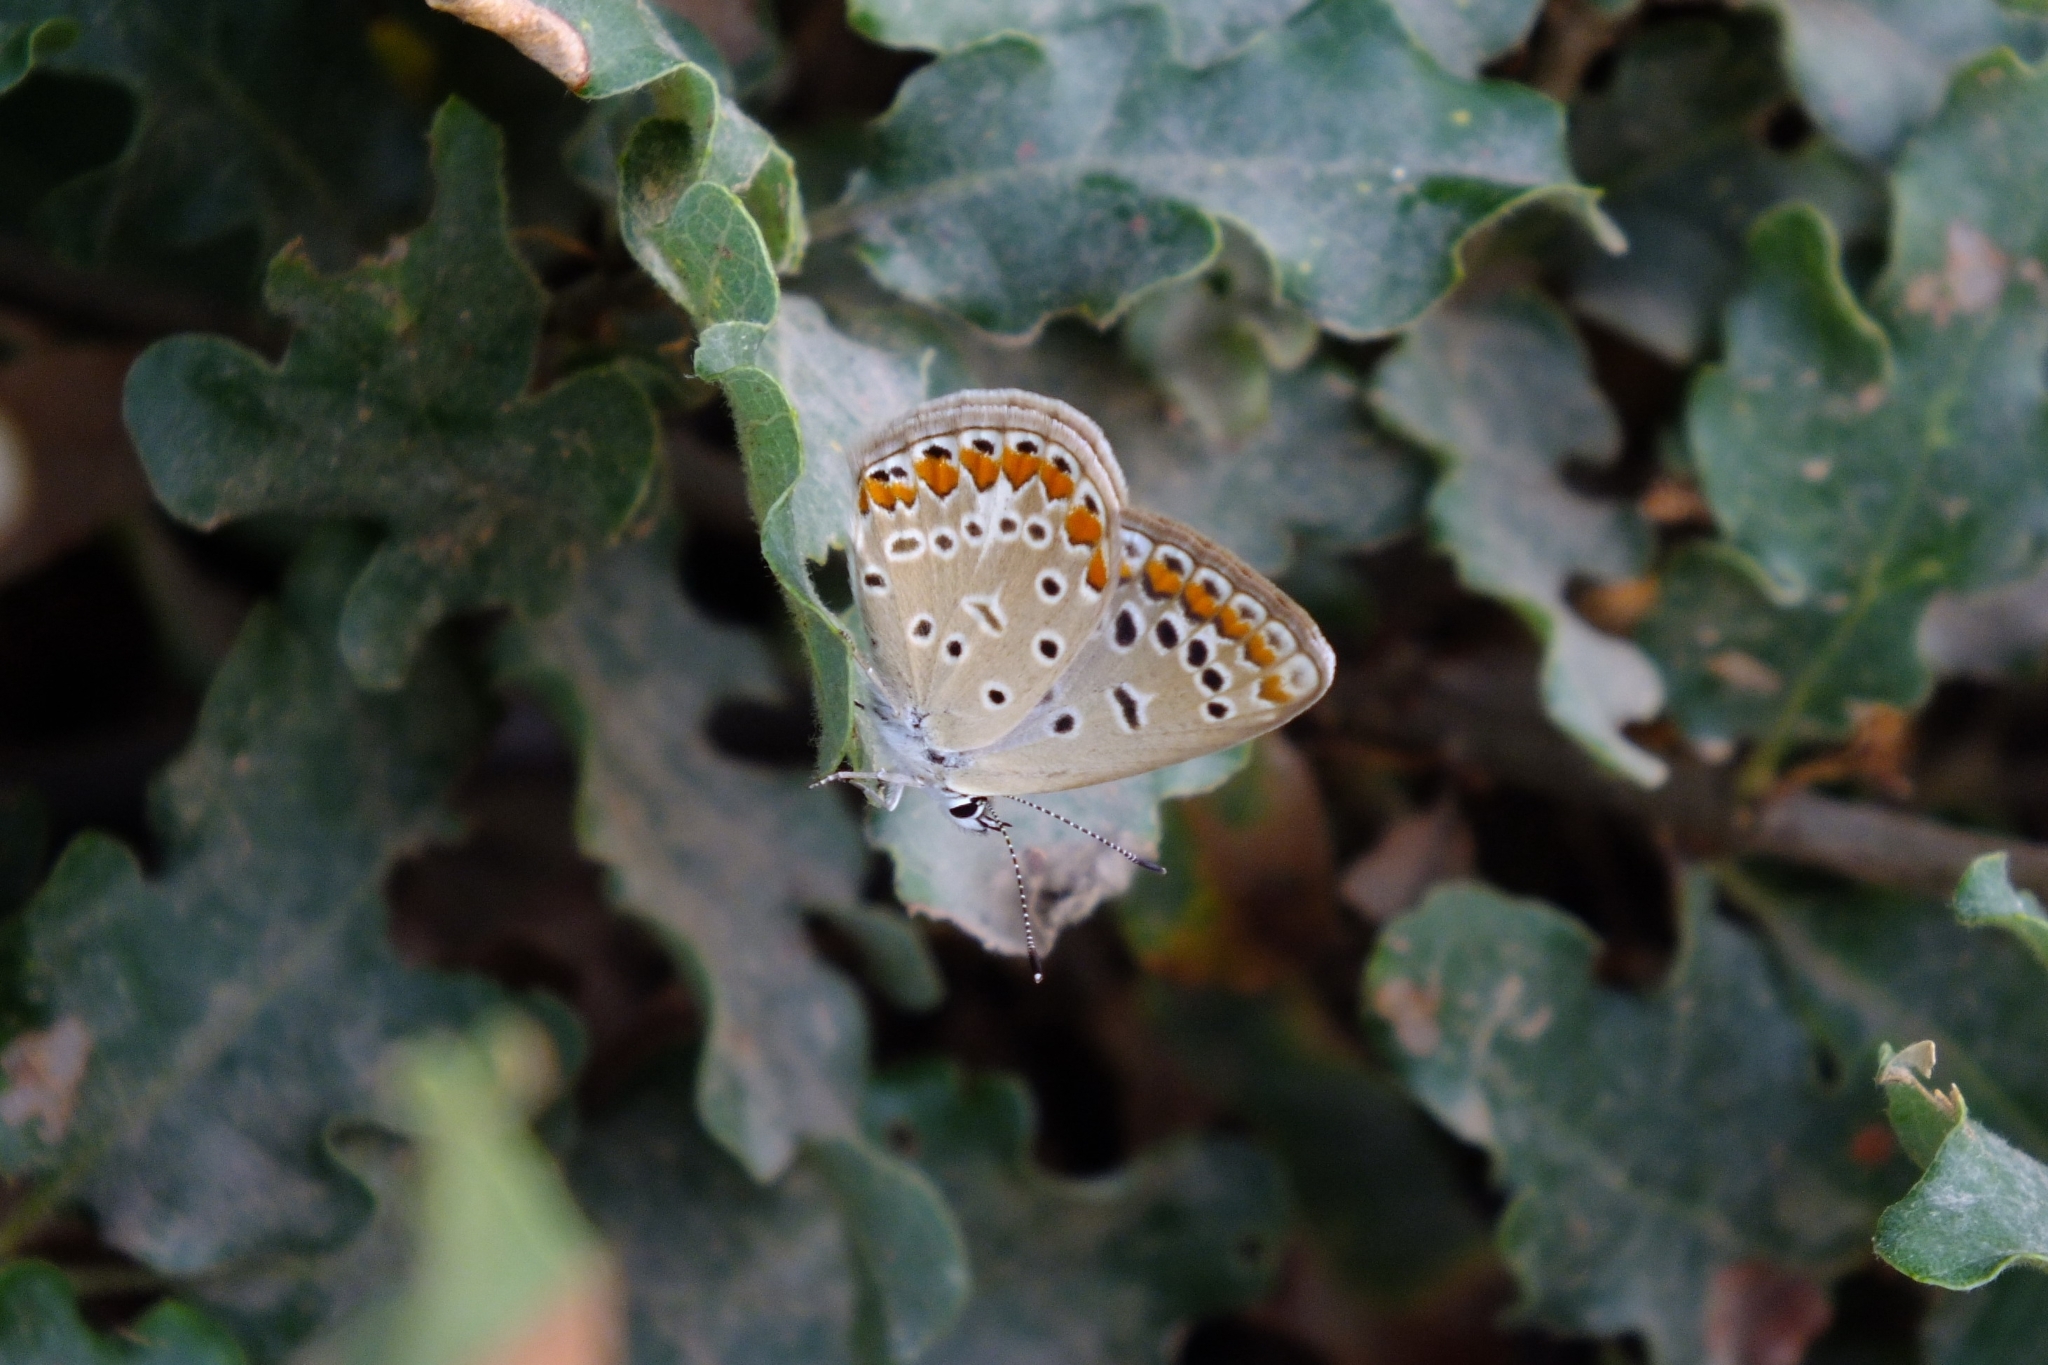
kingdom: Animalia
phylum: Arthropoda
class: Insecta
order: Lepidoptera
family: Lycaenidae
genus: Polyommatus
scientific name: Polyommatus icarus
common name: Common blue
